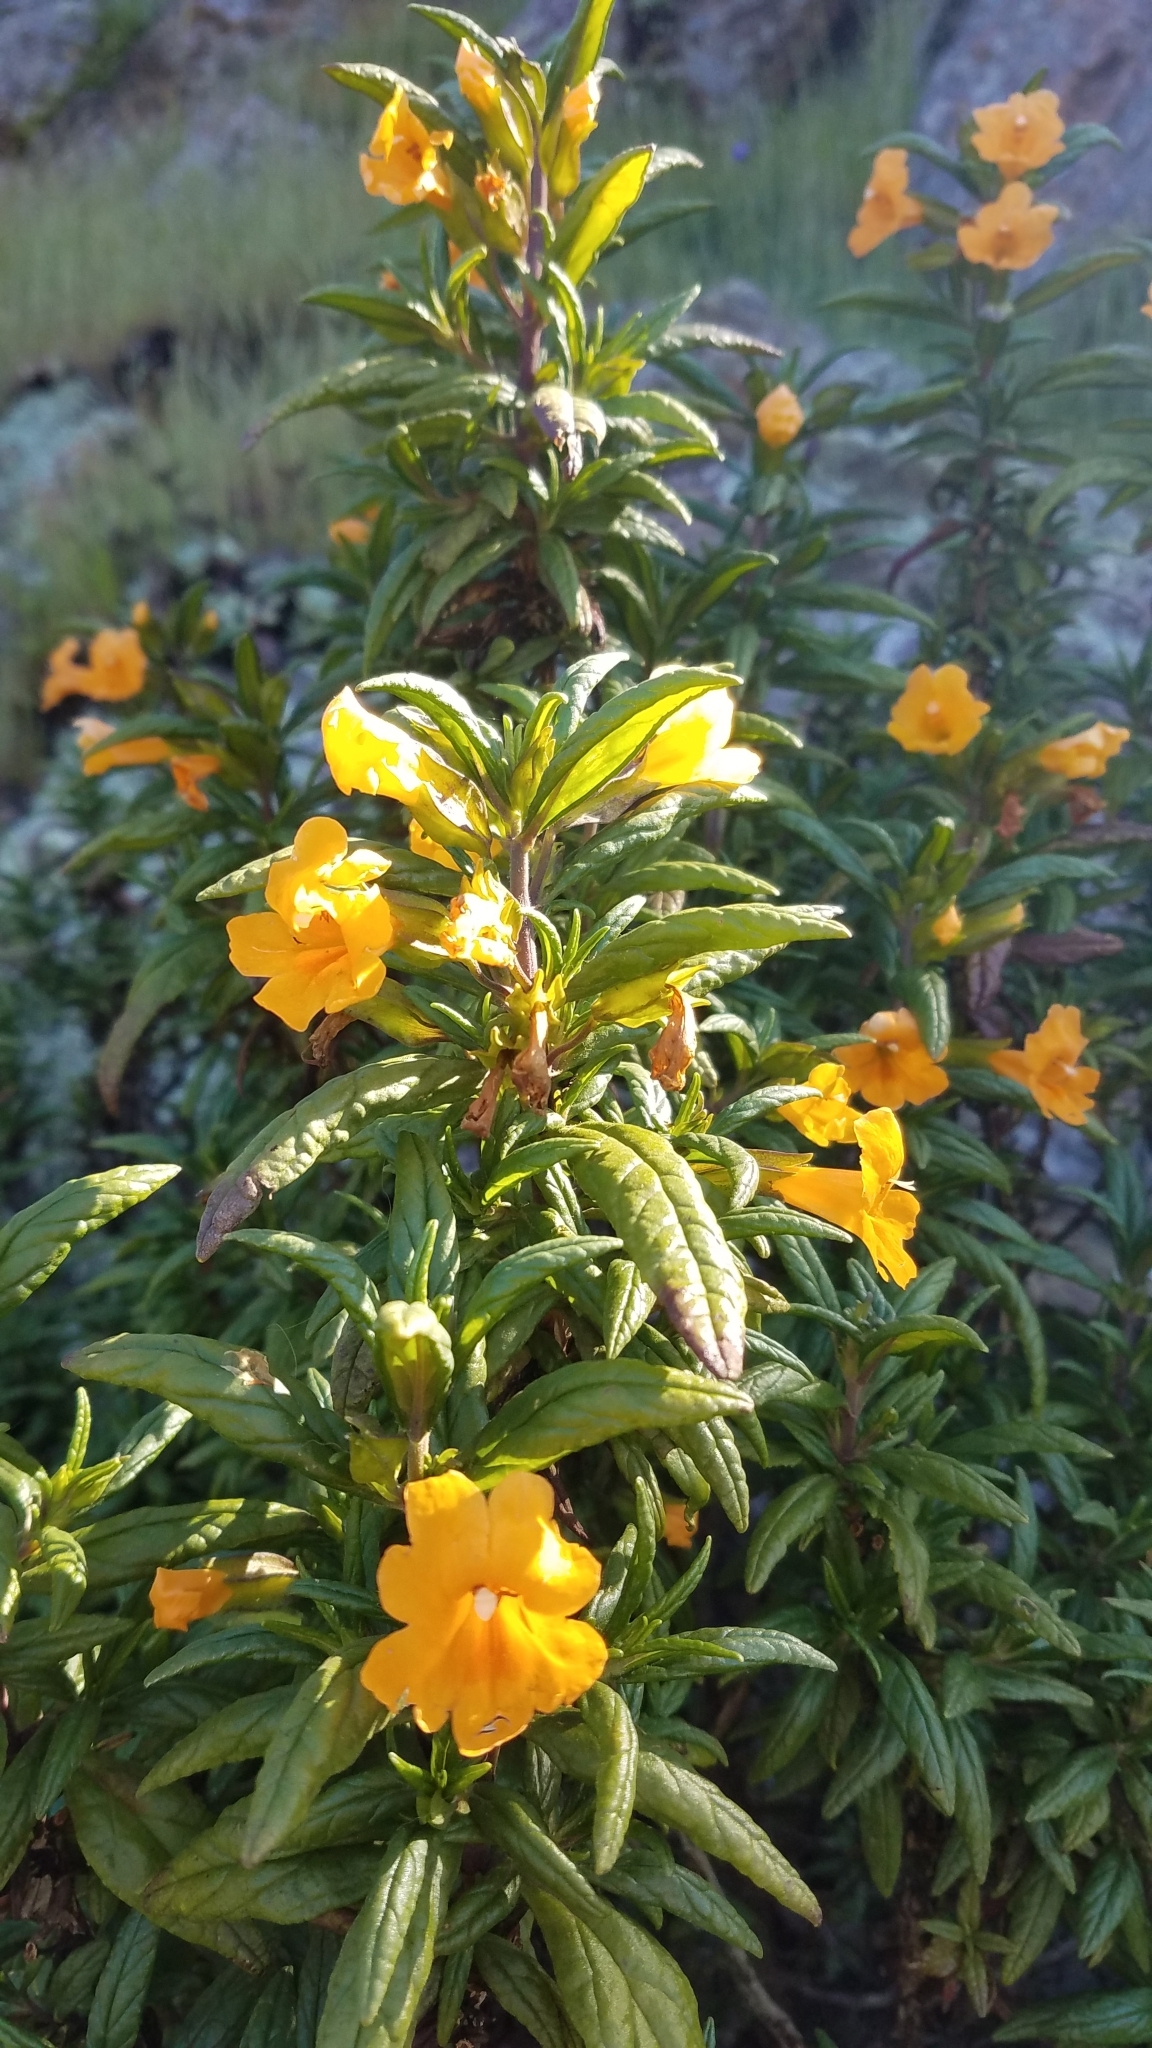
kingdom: Plantae
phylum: Tracheophyta
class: Magnoliopsida
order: Lamiales
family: Phrymaceae
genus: Diplacus
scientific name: Diplacus aurantiacus
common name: Bush monkey-flower
